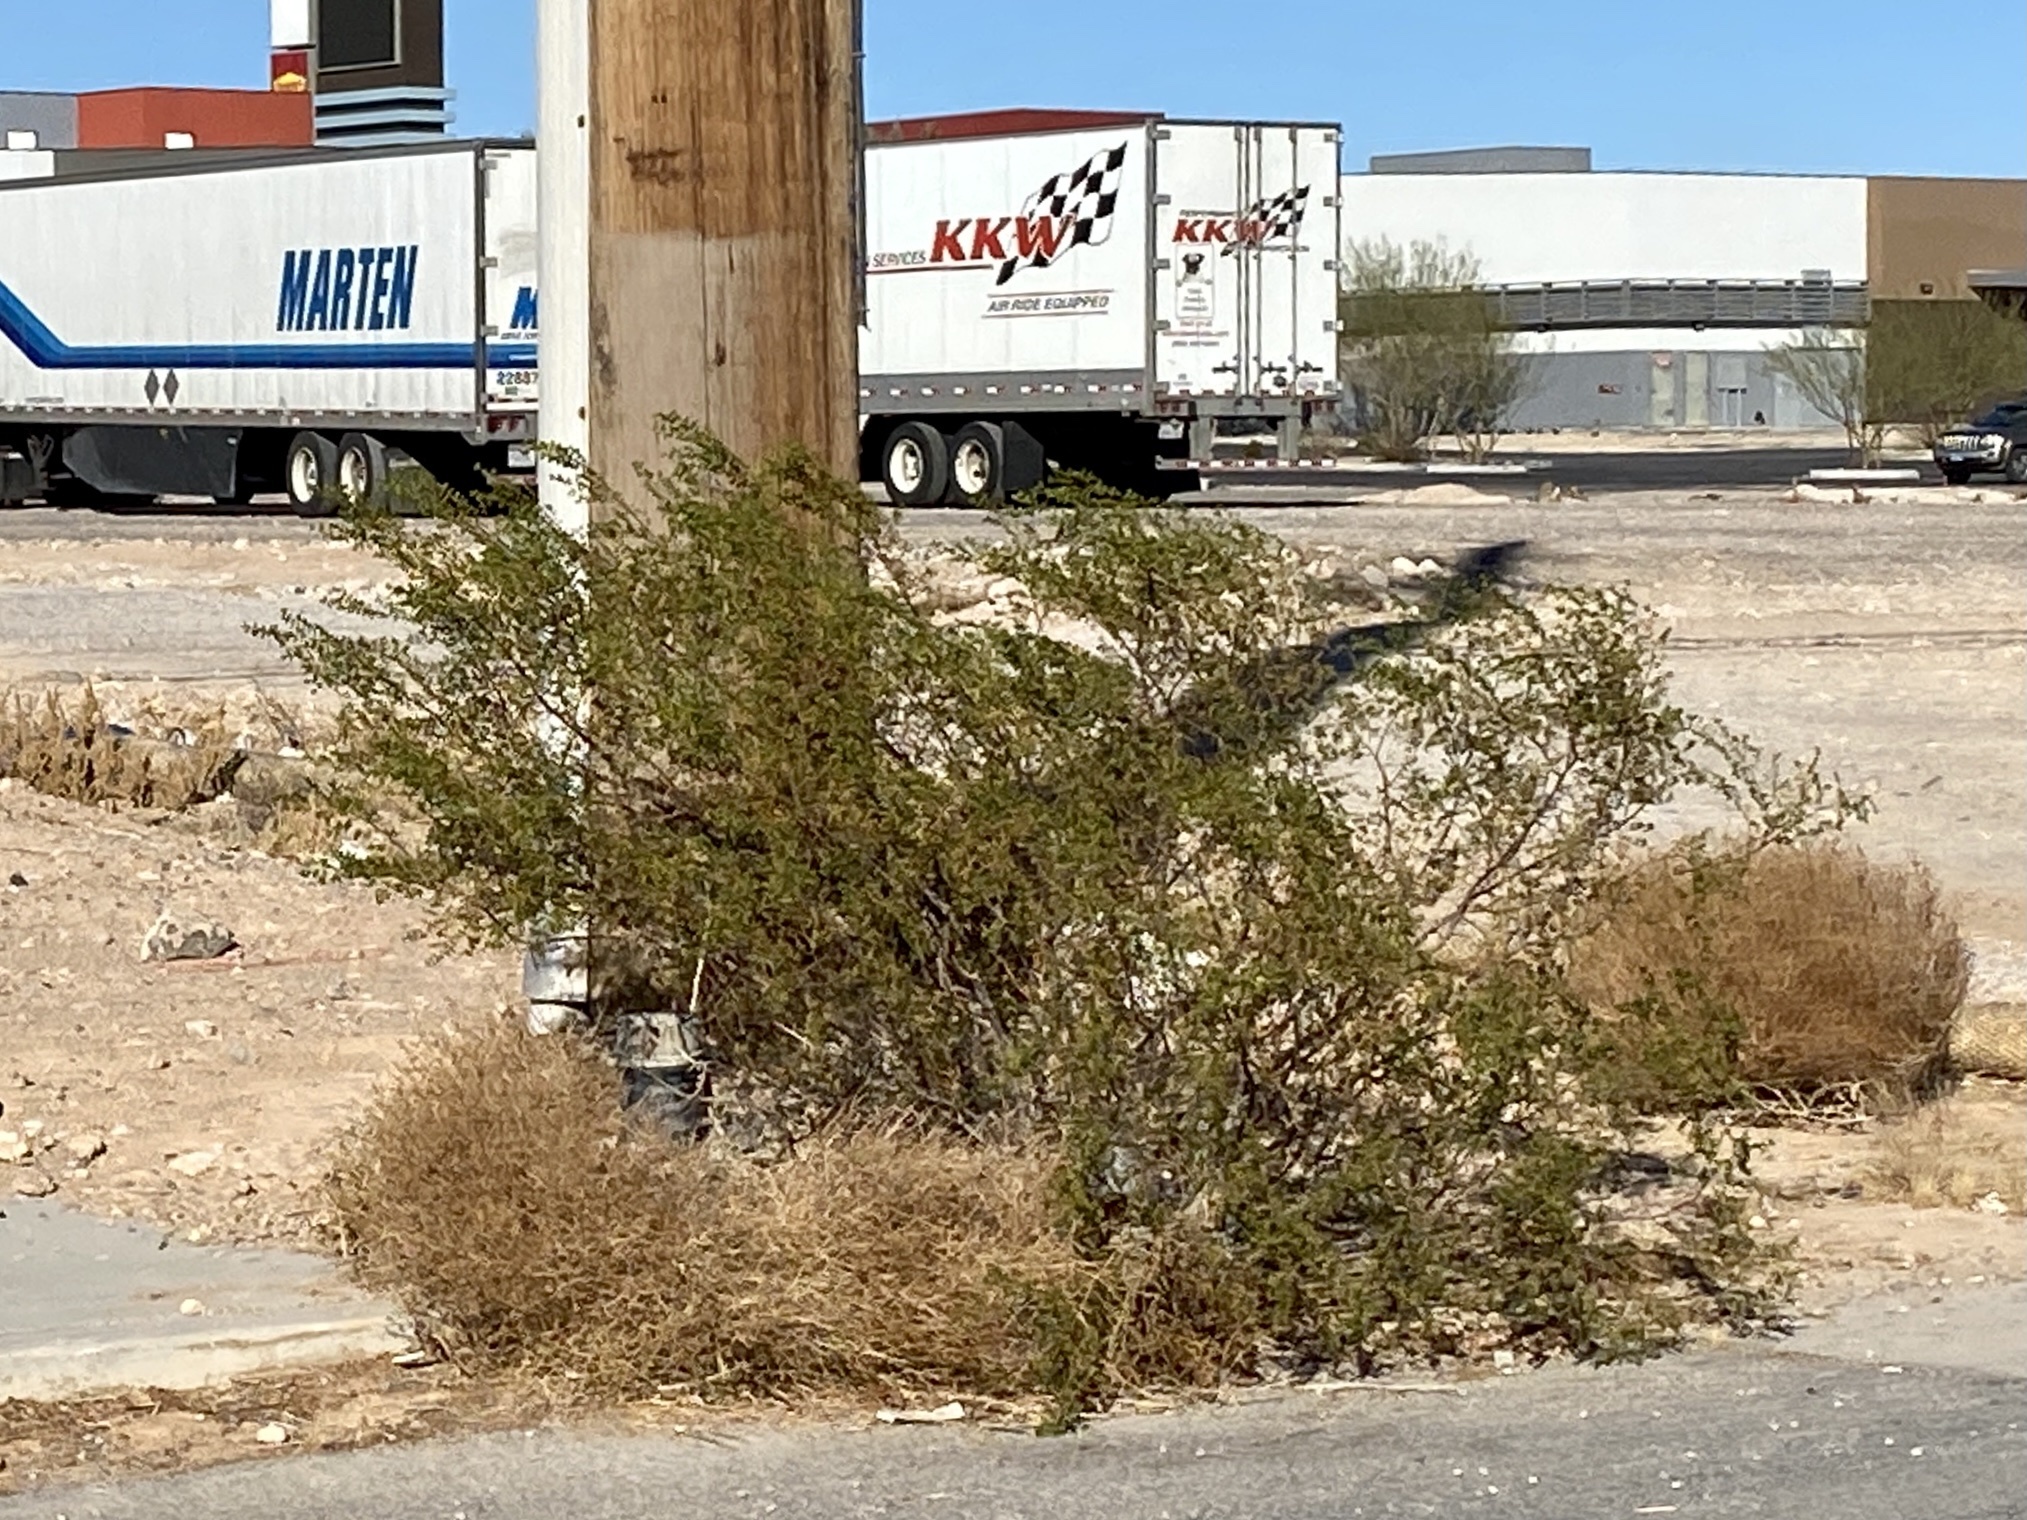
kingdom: Plantae
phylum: Tracheophyta
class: Magnoliopsida
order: Zygophyllales
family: Zygophyllaceae
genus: Larrea
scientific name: Larrea tridentata
